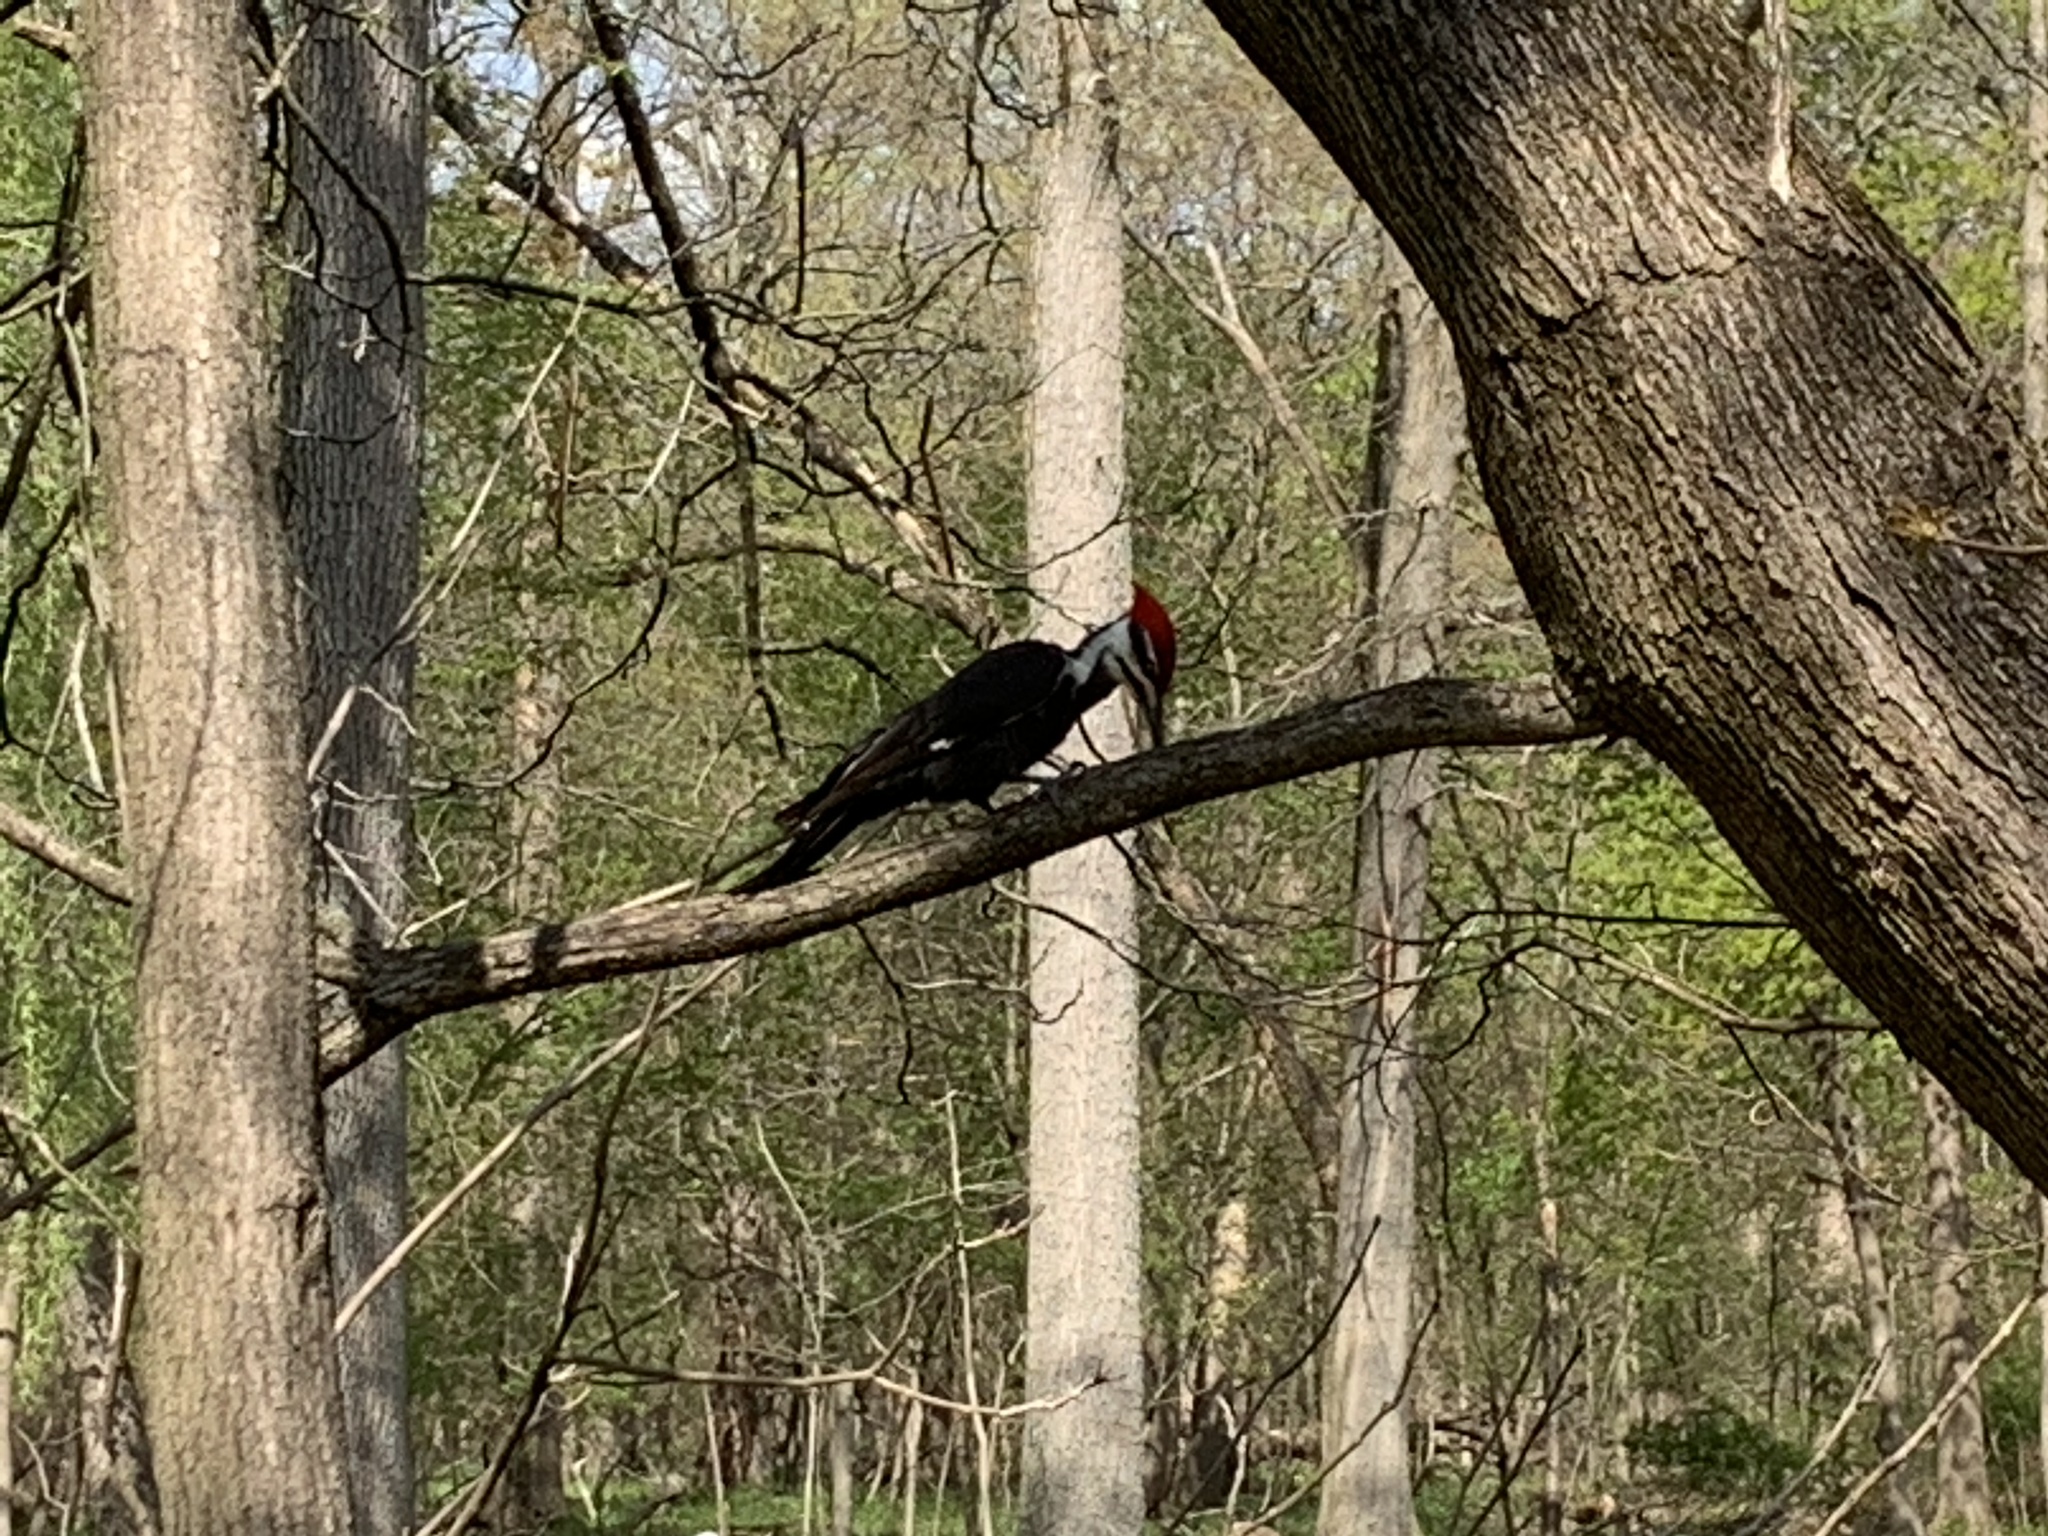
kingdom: Animalia
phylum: Chordata
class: Aves
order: Piciformes
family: Picidae
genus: Dryocopus
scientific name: Dryocopus pileatus
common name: Pileated woodpecker
